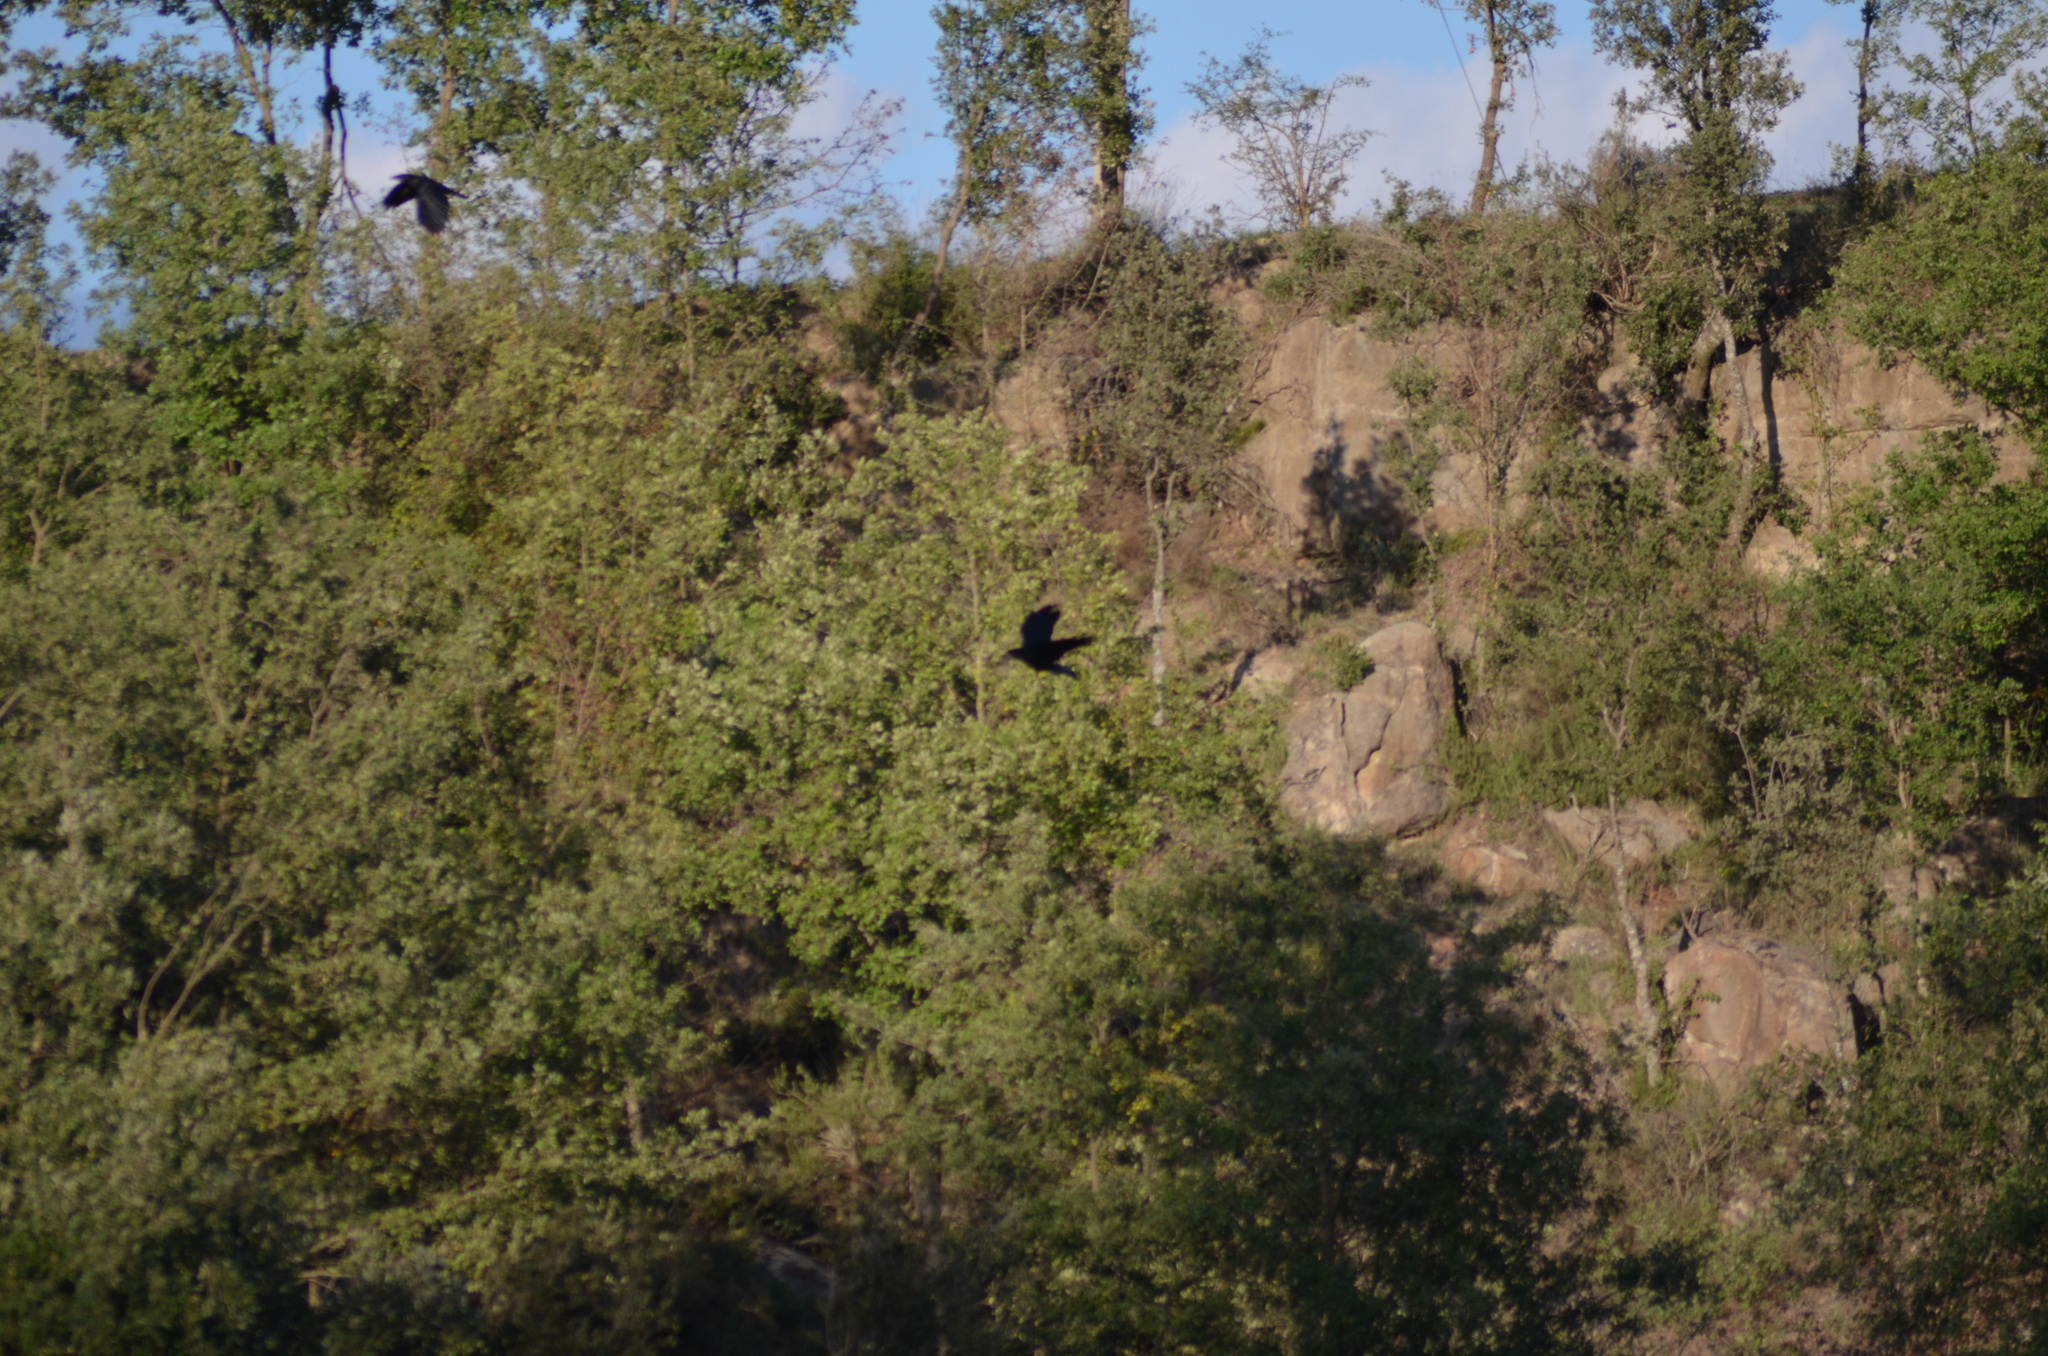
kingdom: Animalia
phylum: Chordata
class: Aves
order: Passeriformes
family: Corvidae
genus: Corvus
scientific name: Corvus corone
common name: Carrion crow
